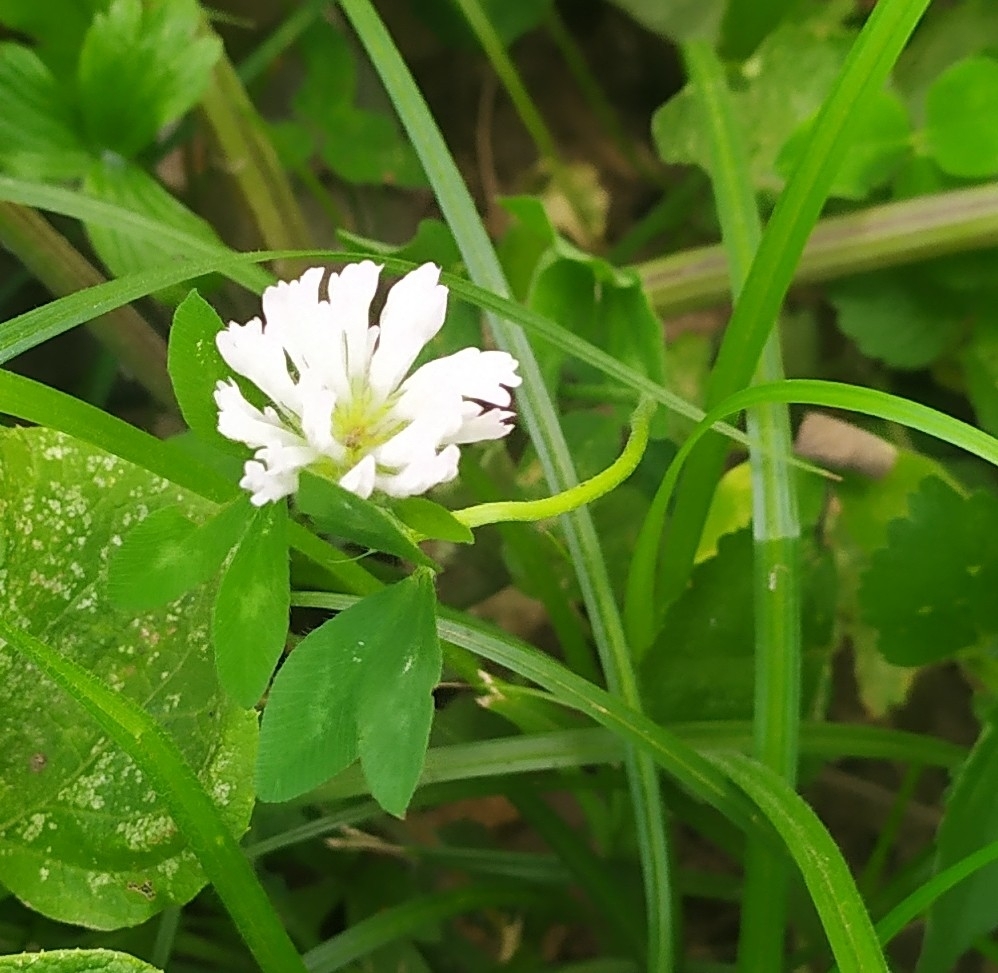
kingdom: Plantae
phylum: Tracheophyta
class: Magnoliopsida
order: Fabales
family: Fabaceae
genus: Trifolium
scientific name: Trifolium pratense
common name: Red clover
